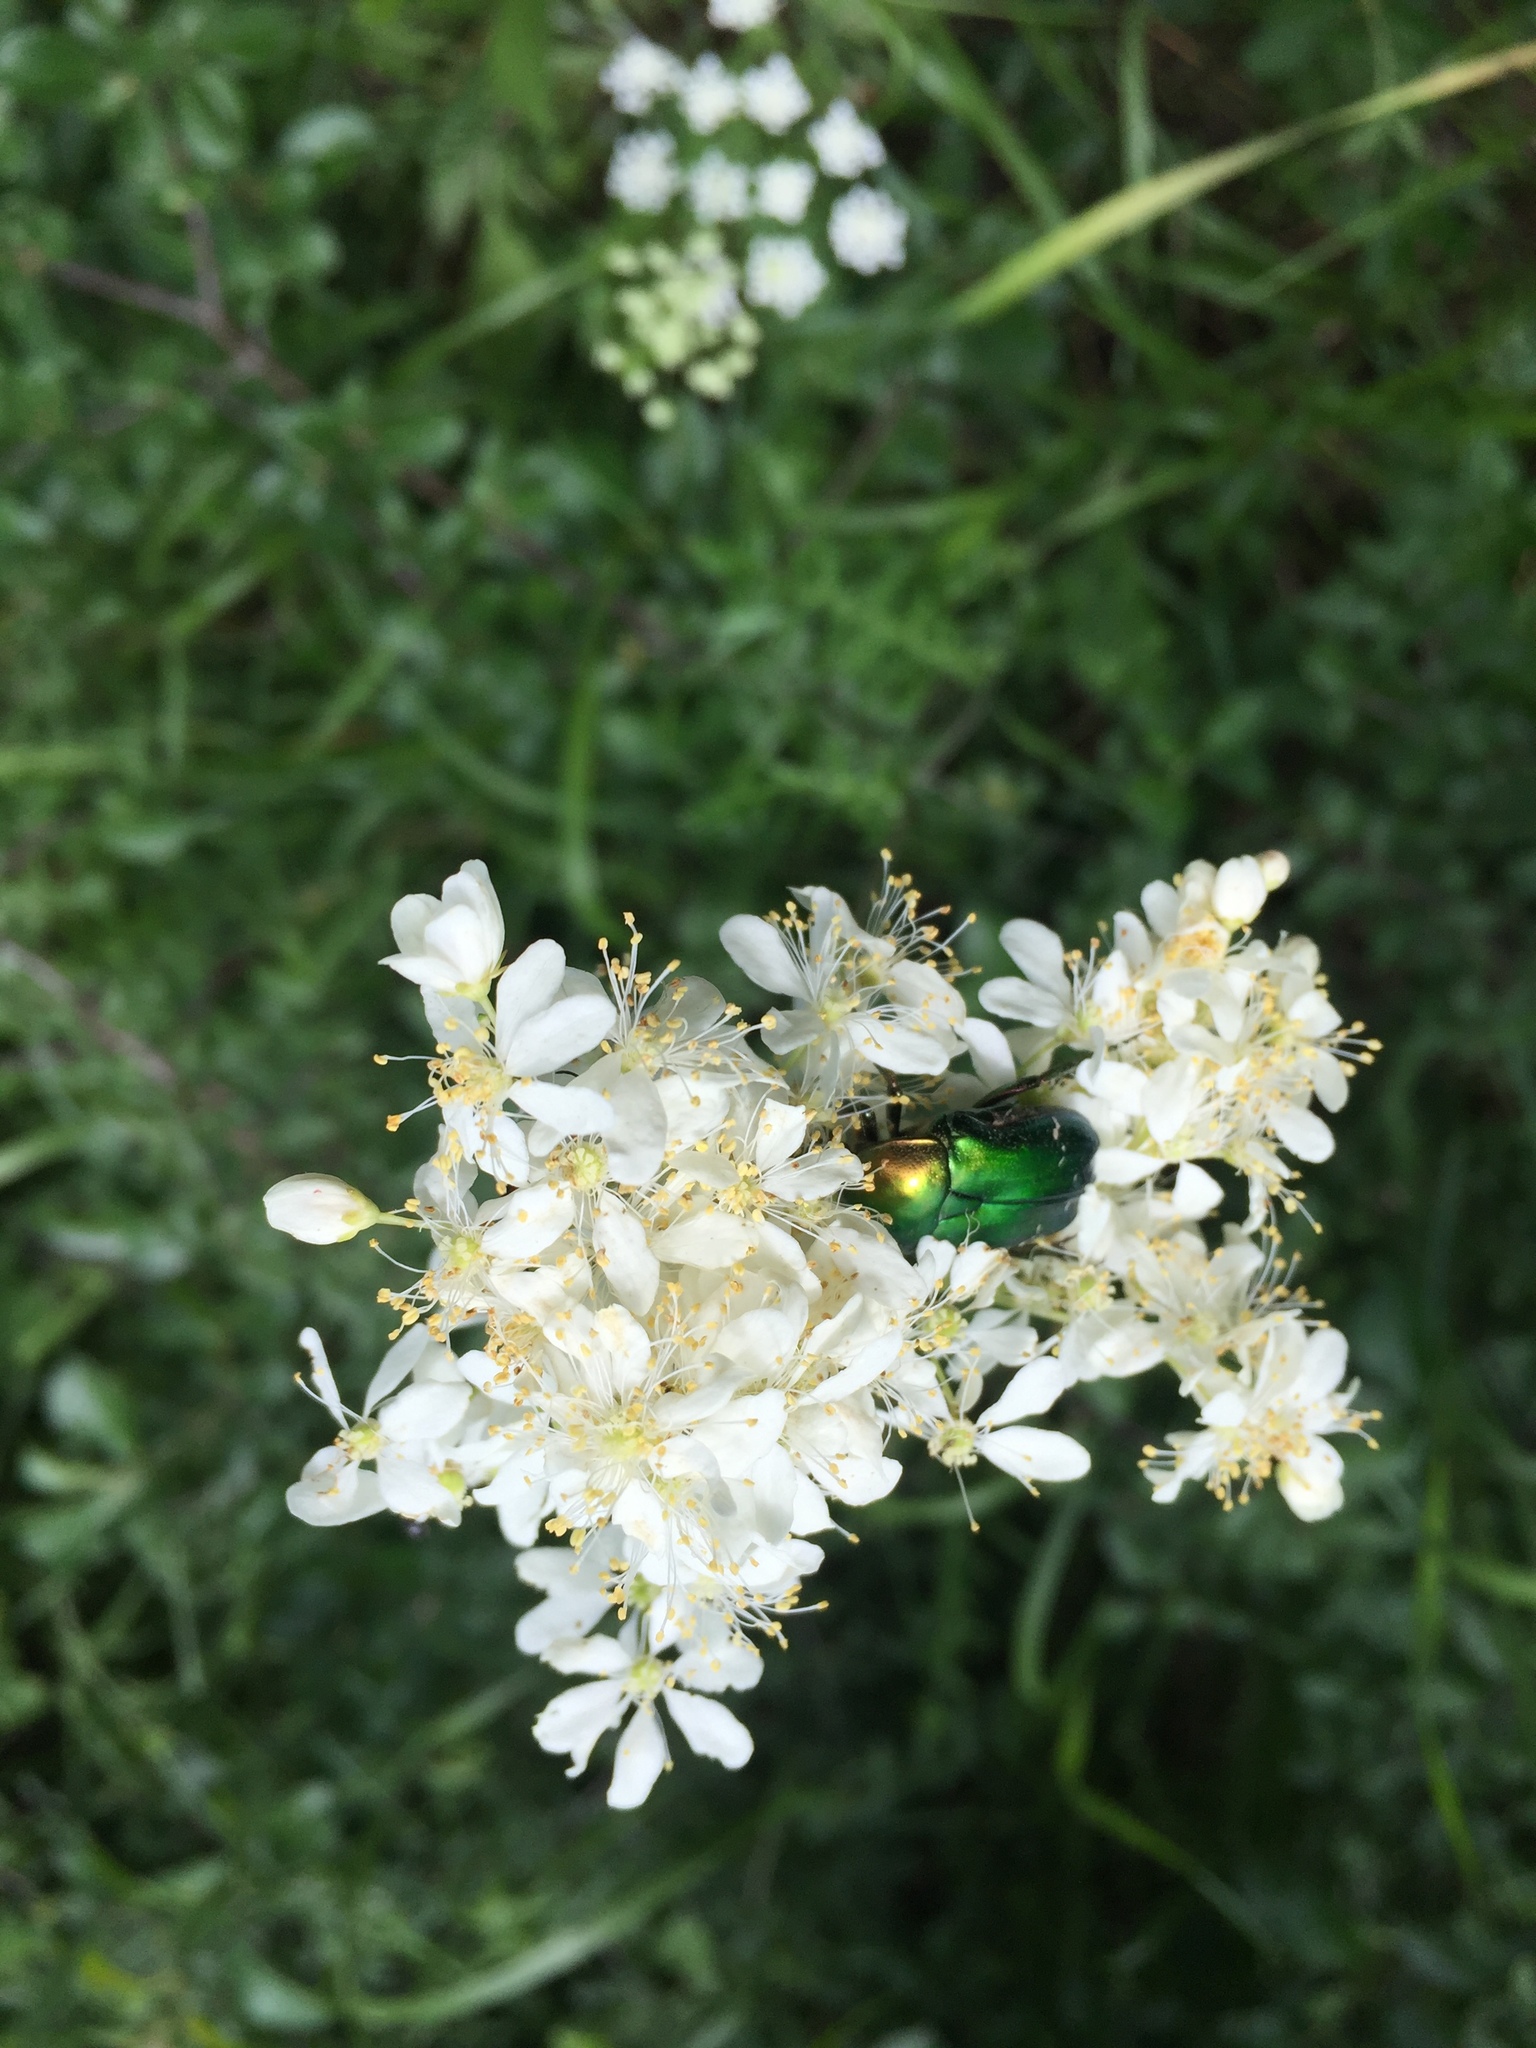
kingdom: Animalia
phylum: Arthropoda
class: Insecta
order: Coleoptera
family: Scarabaeidae
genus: Cetonia
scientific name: Cetonia aurata
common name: Rose chafer
